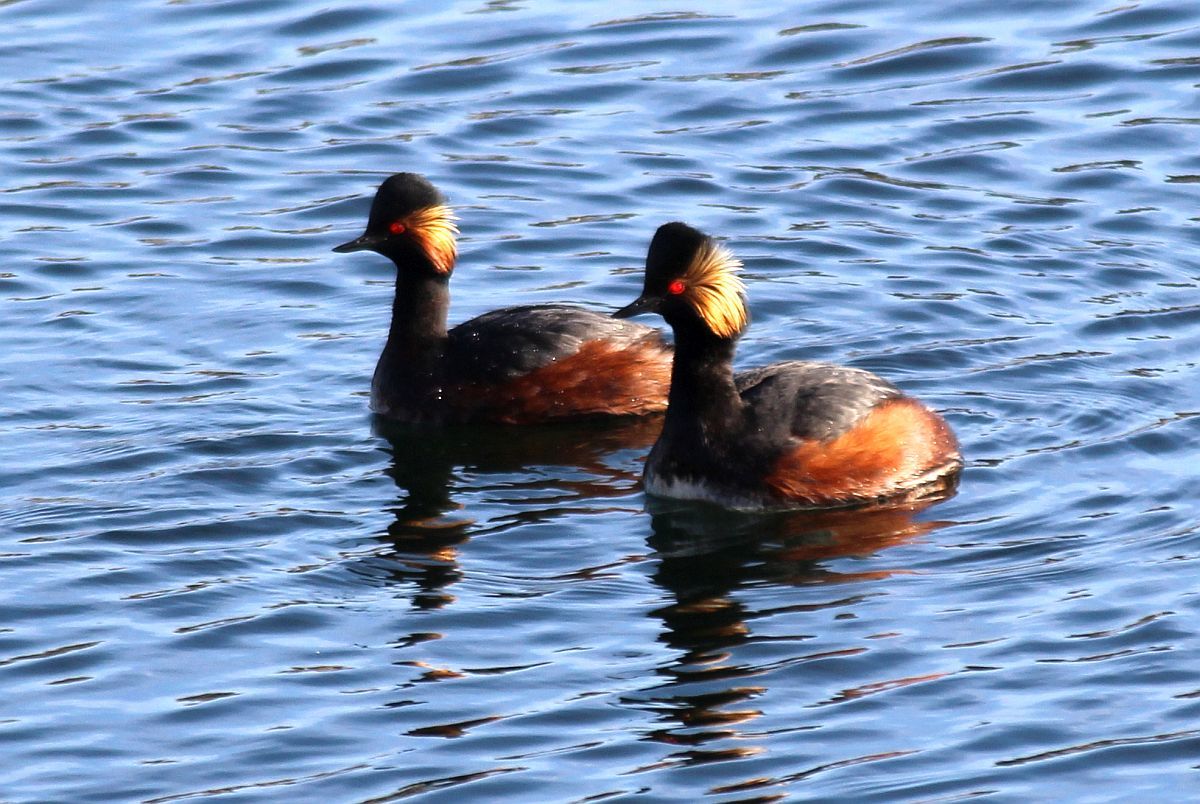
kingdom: Animalia
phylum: Chordata
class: Aves
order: Podicipediformes
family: Podicipedidae
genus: Podiceps
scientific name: Podiceps nigricollis
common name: Black-necked grebe
